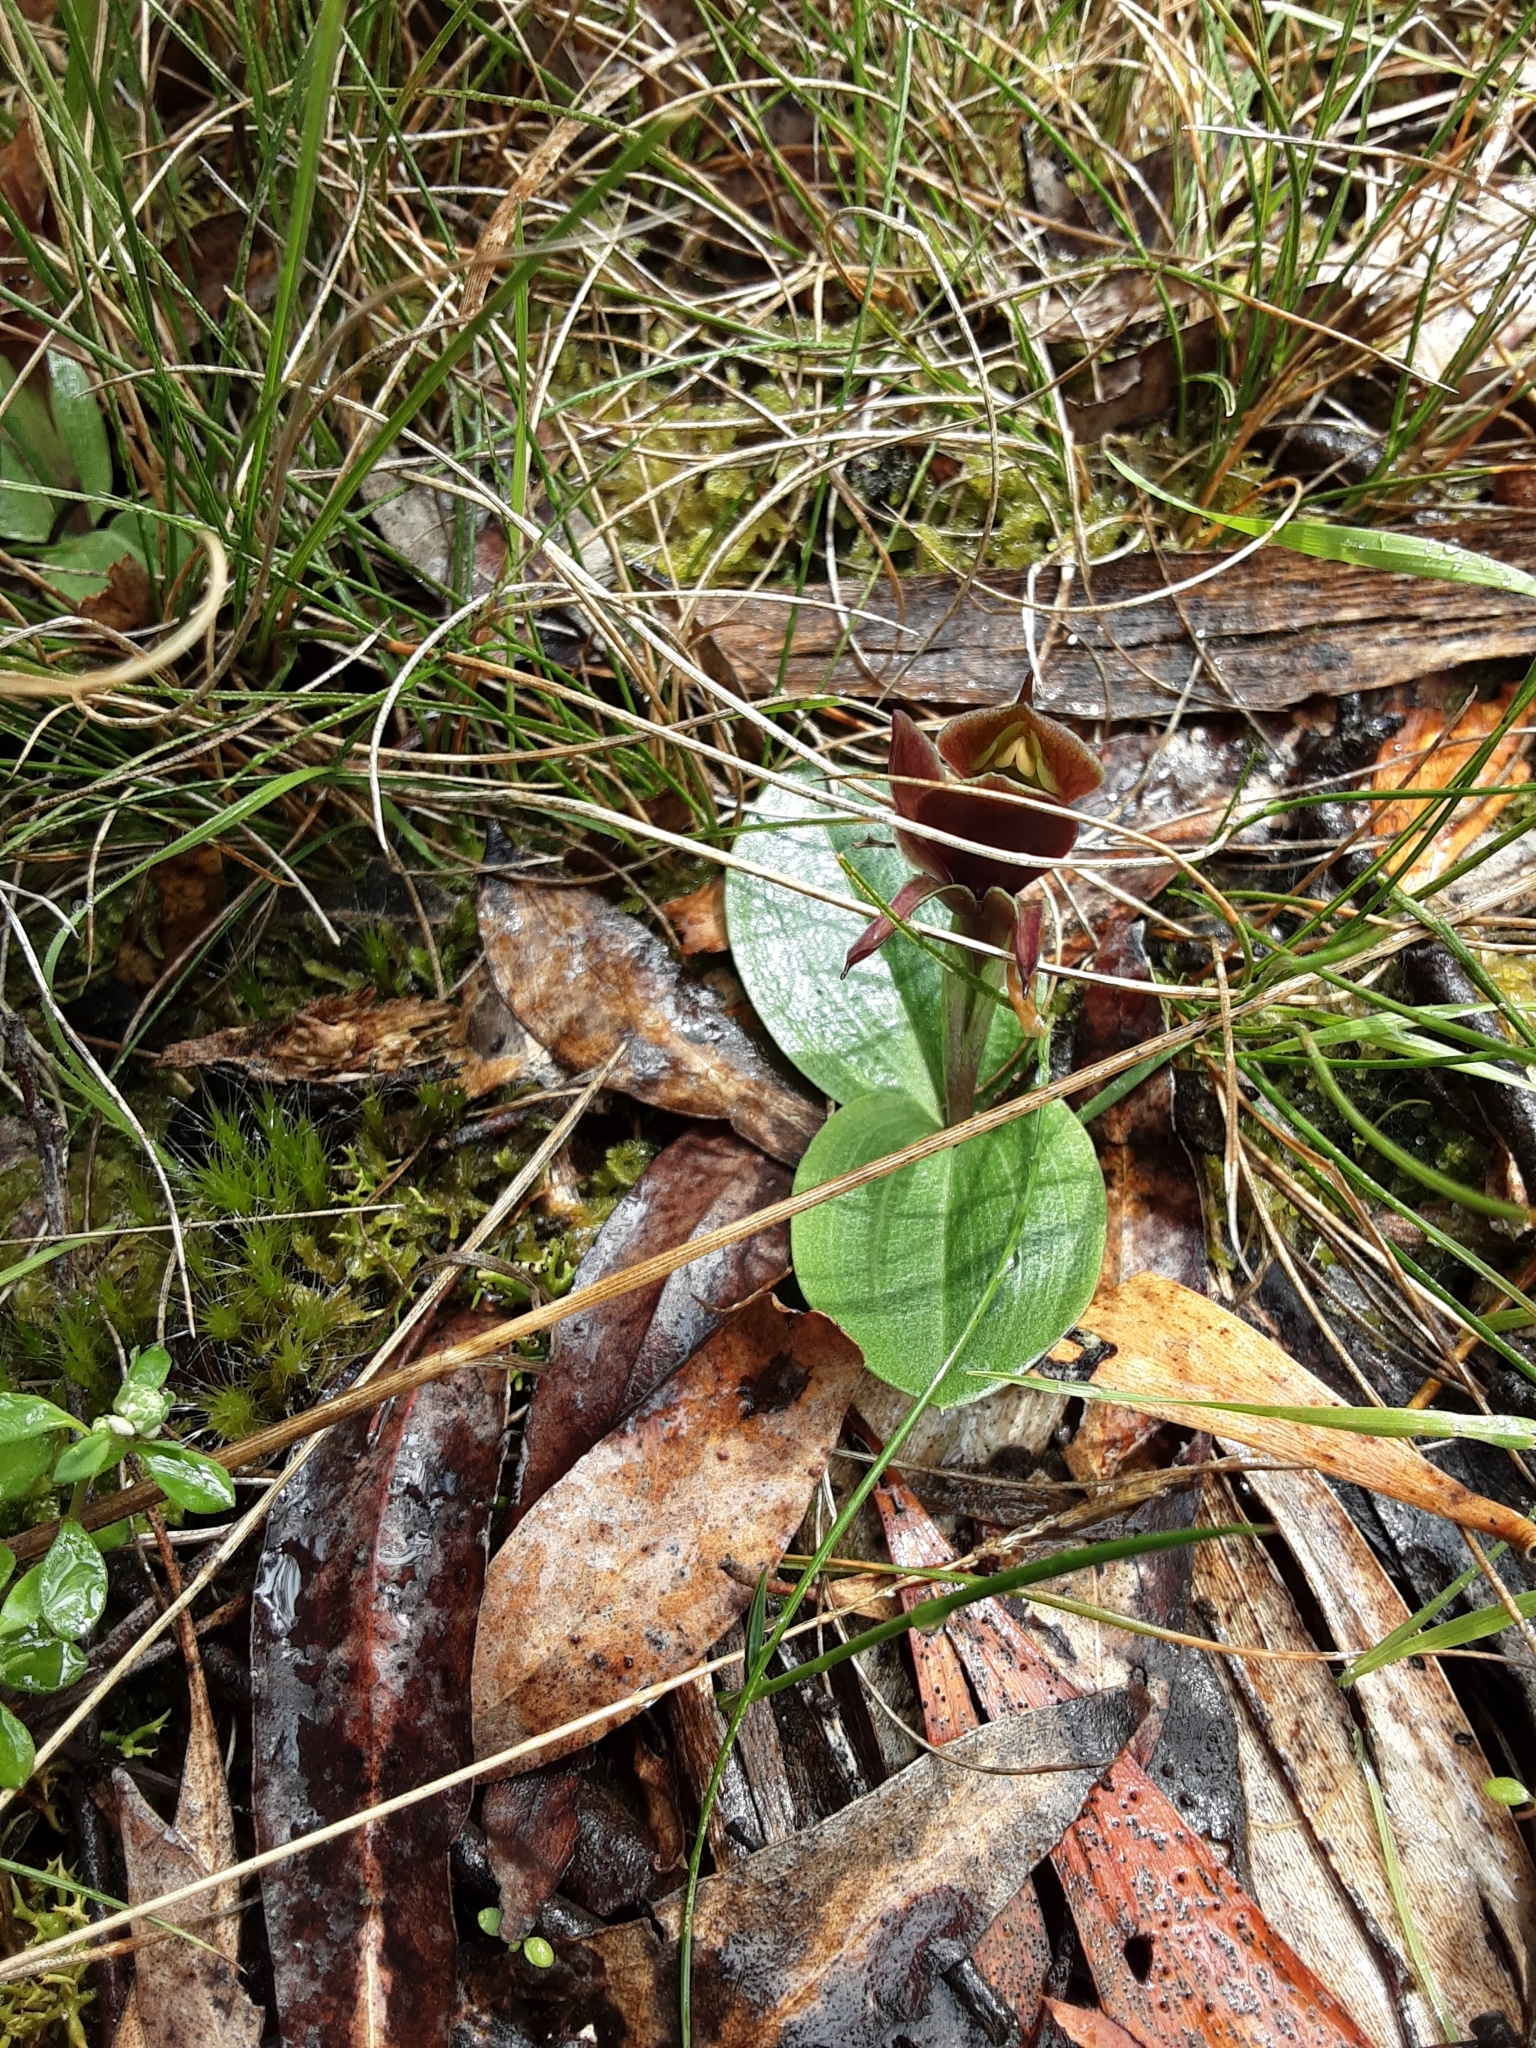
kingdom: Plantae
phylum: Tracheophyta
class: Liliopsida
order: Asparagales
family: Orchidaceae
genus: Chiloglottis
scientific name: Chiloglottis valida
